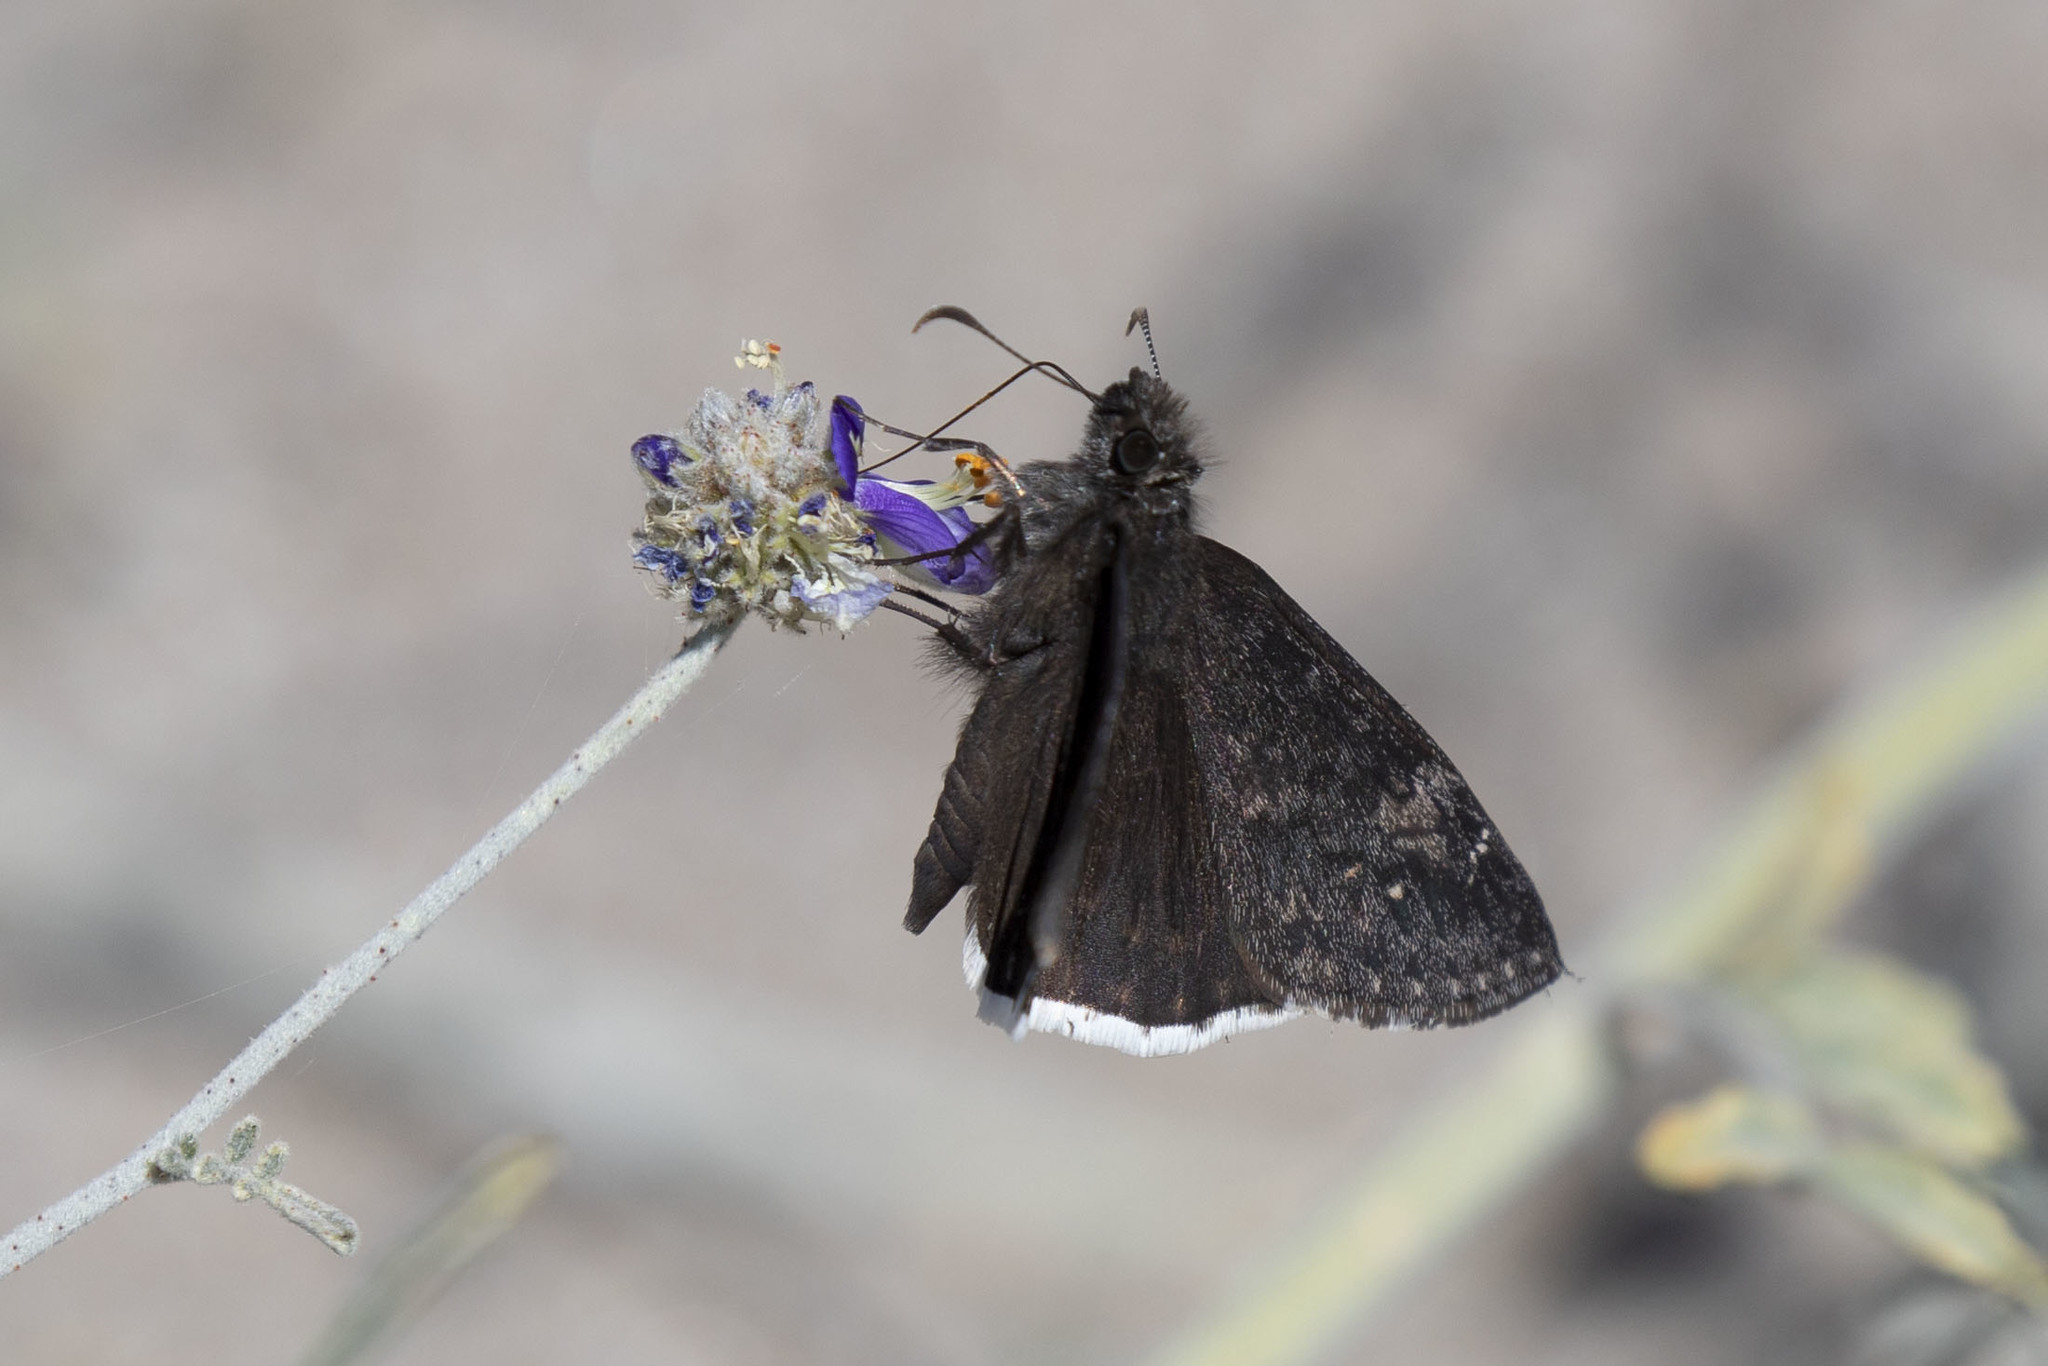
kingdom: Animalia
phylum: Arthropoda
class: Insecta
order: Lepidoptera
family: Hesperiidae
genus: Erynnis
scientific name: Erynnis funeralis
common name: Funereal duskywing
